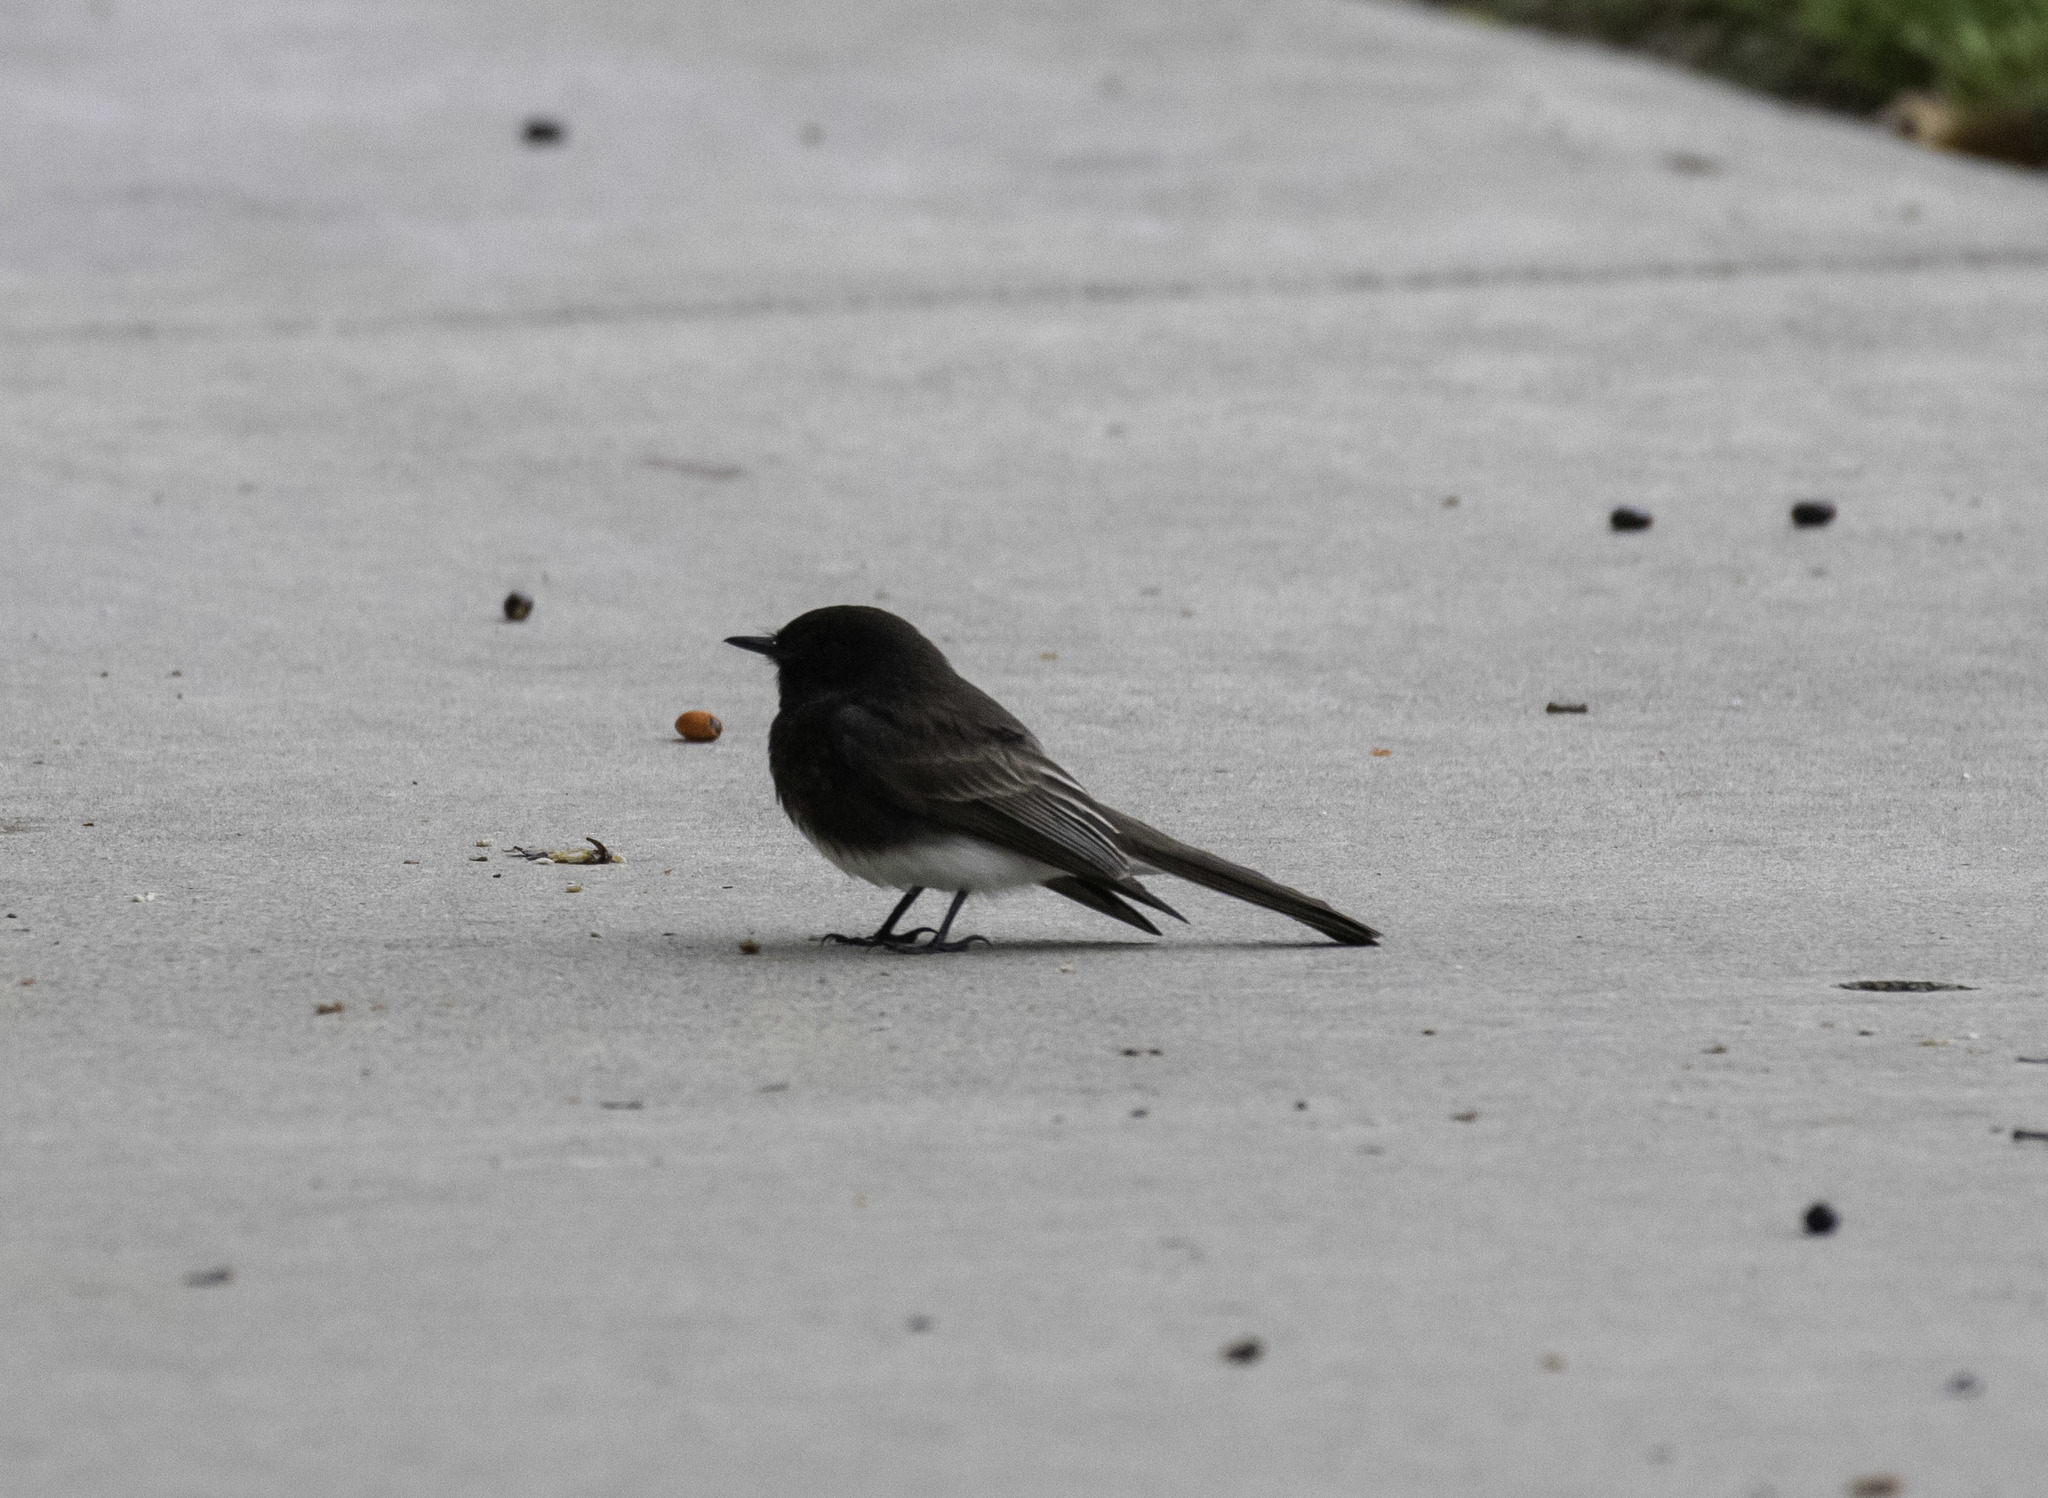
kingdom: Animalia
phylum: Chordata
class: Aves
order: Passeriformes
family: Tyrannidae
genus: Sayornis
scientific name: Sayornis nigricans
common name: Black phoebe
